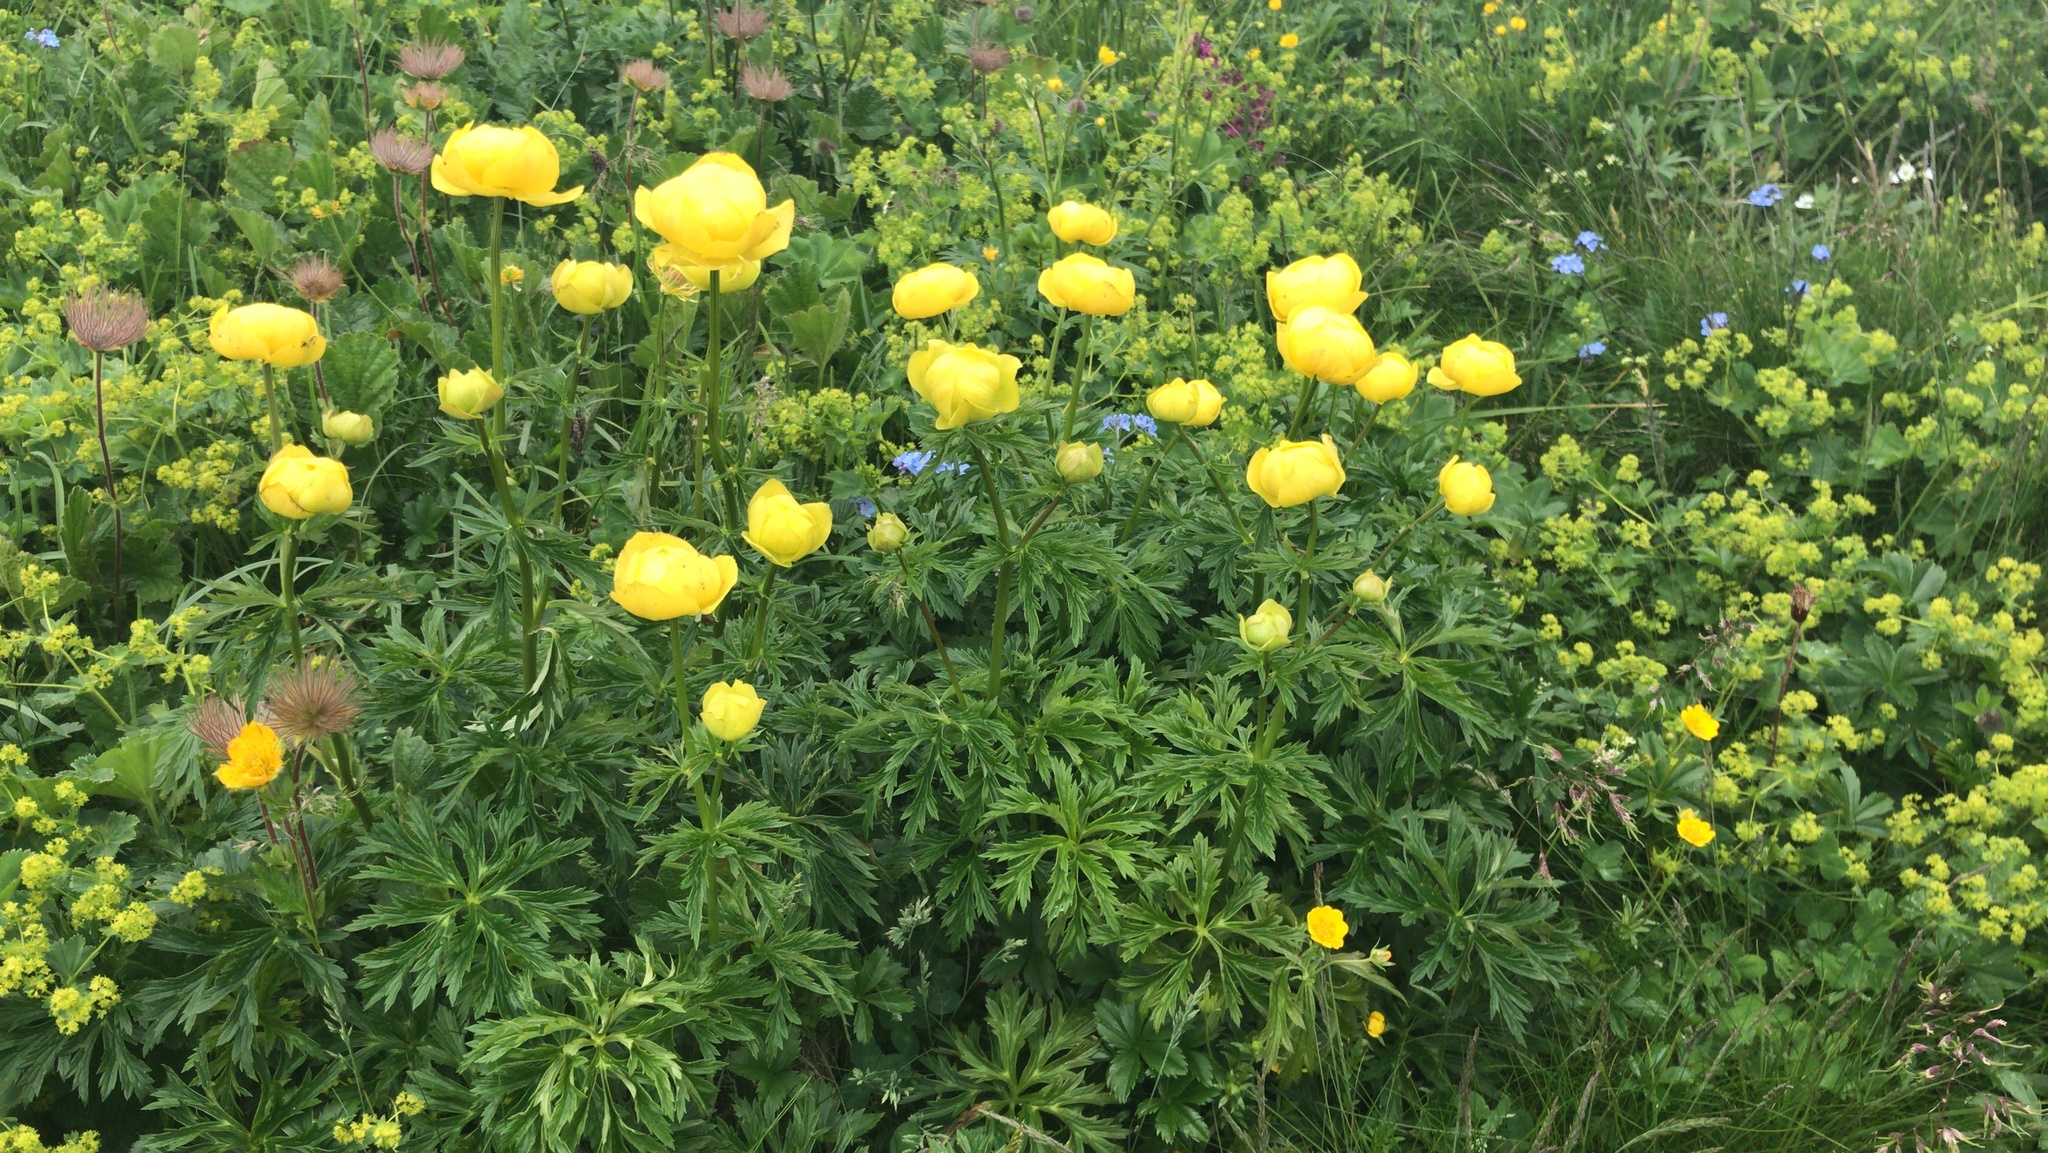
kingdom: Plantae
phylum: Tracheophyta
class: Magnoliopsida
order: Ranunculales
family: Ranunculaceae
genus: Trollius
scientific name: Trollius europaeus
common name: European globeflower
